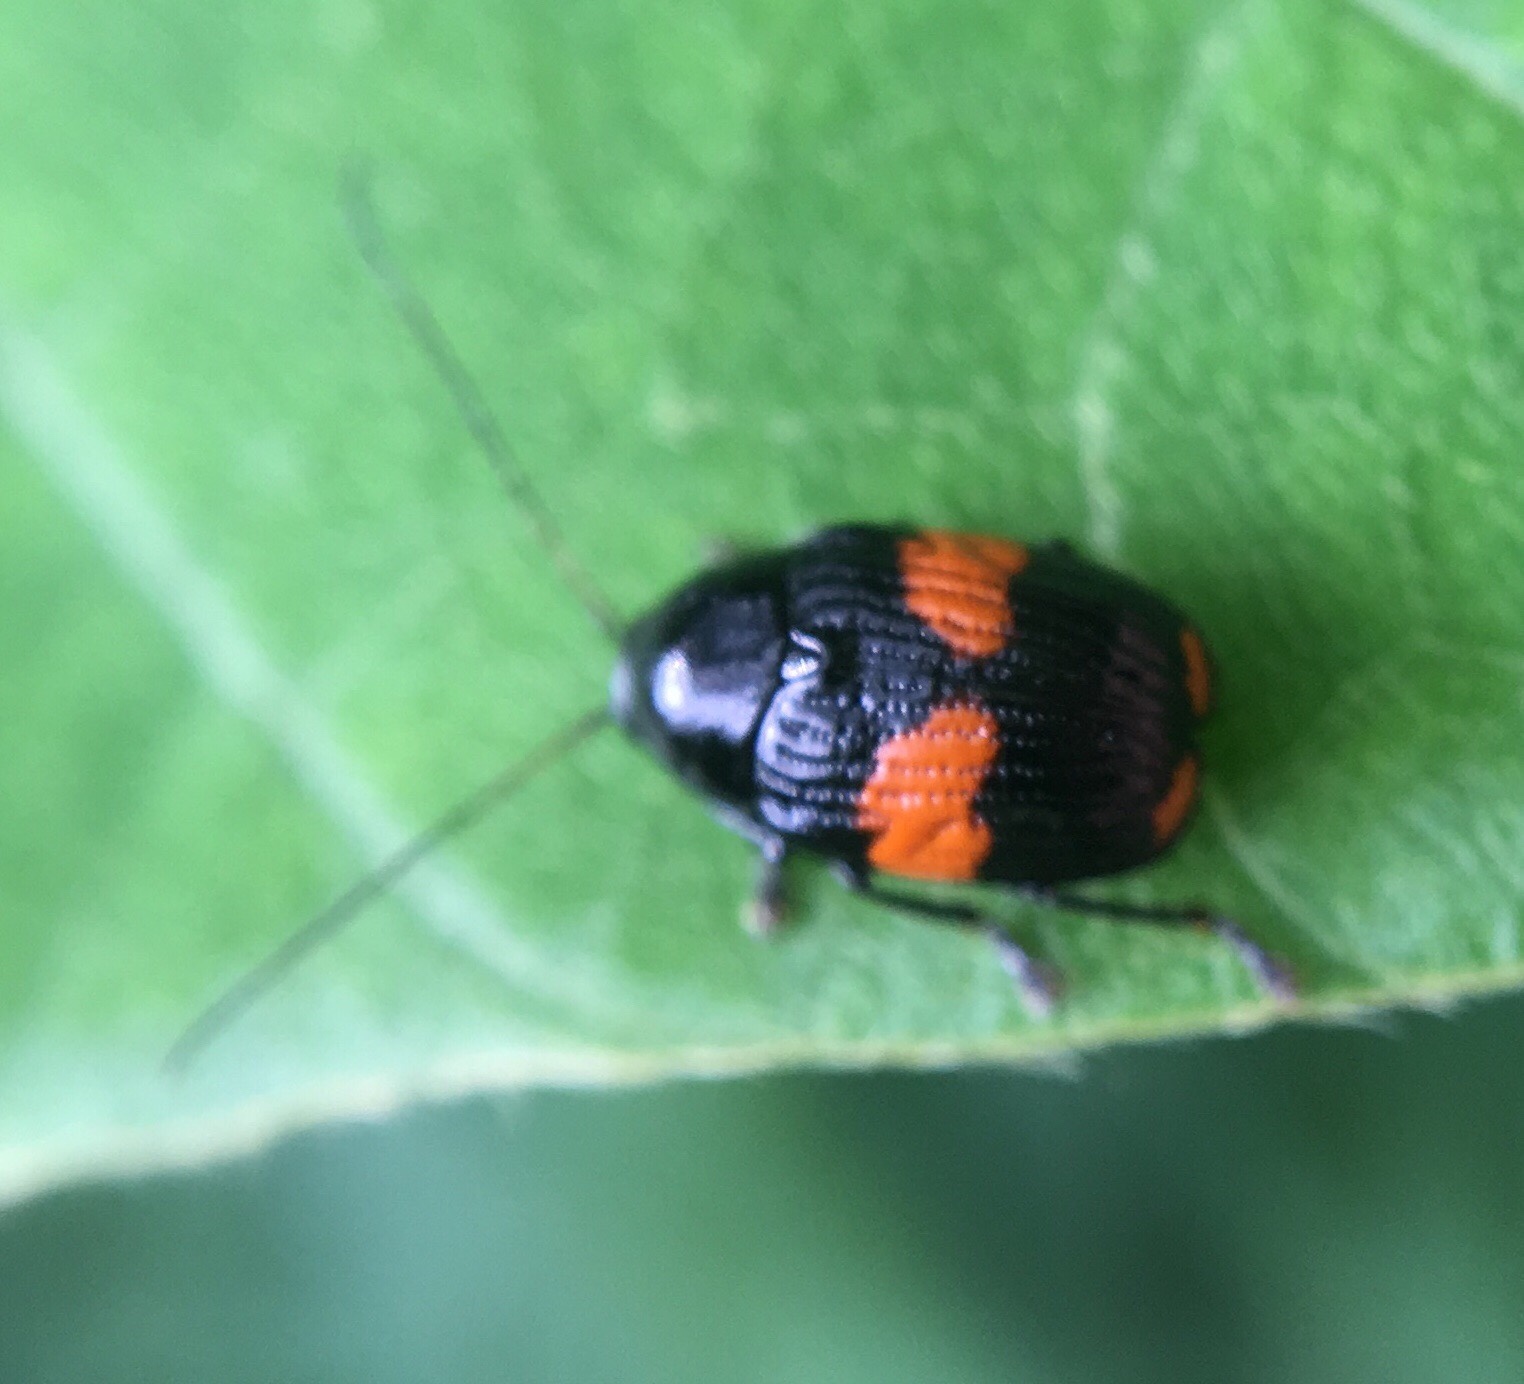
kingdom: Animalia
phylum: Arthropoda
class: Insecta
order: Coleoptera
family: Chrysomelidae
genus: Bassareus
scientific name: Bassareus mammifer
